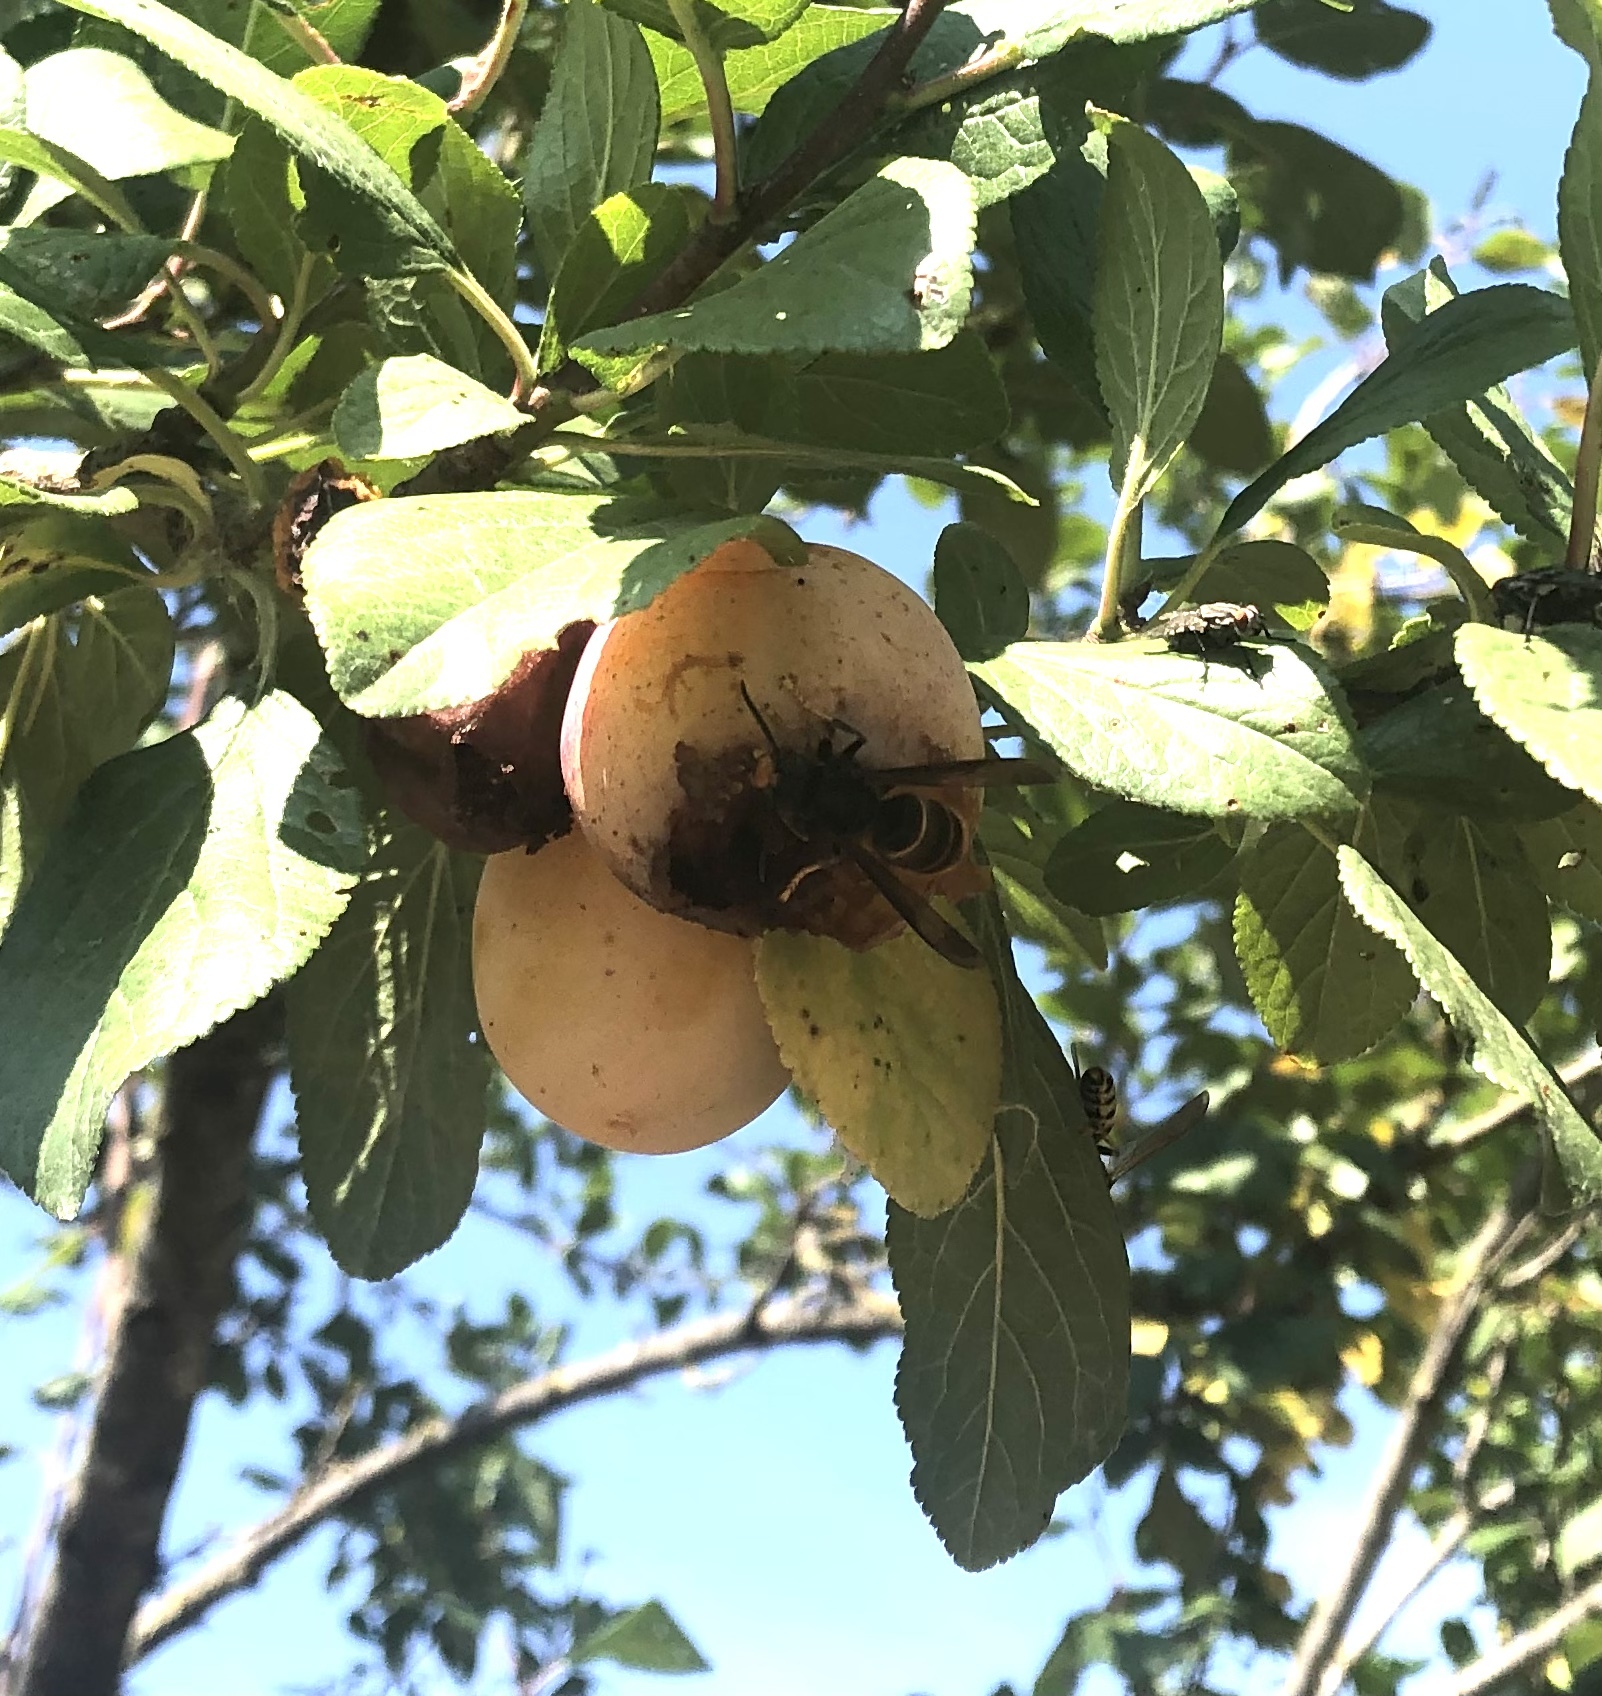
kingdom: Animalia
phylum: Arthropoda
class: Insecta
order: Hymenoptera
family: Vespidae
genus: Vespa
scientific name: Vespa velutina
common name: Asian hornet
